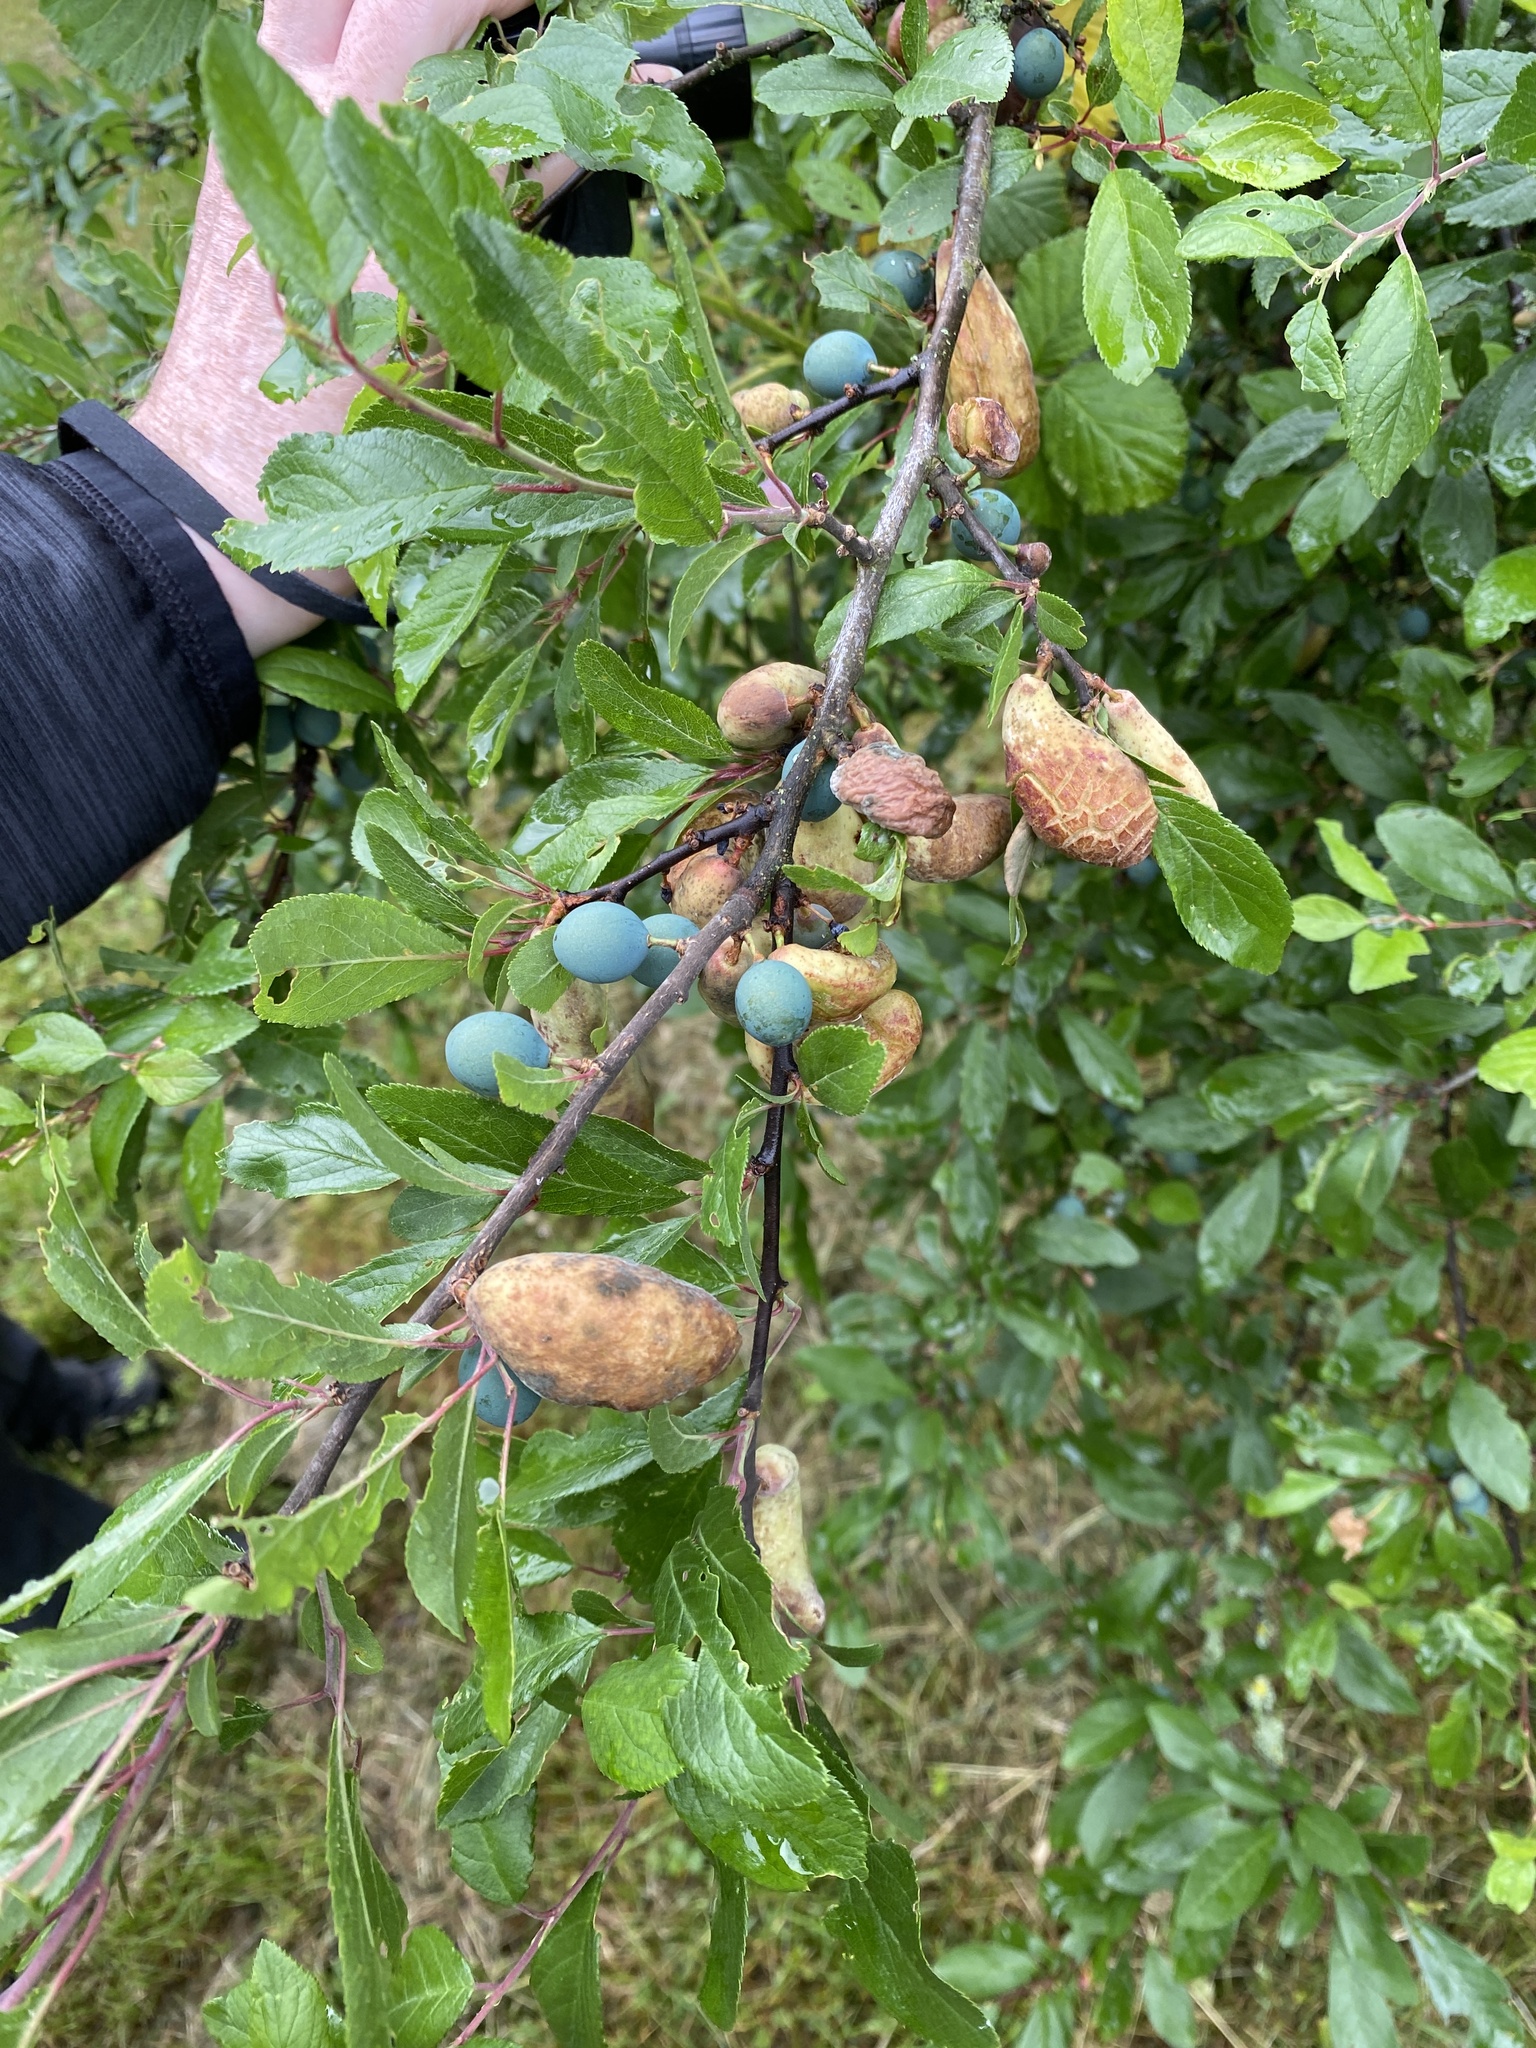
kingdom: Fungi
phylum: Ascomycota
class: Taphrinomycetes
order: Taphrinales
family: Taphrinaceae
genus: Taphrina
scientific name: Taphrina pruni
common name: Pocket plum
